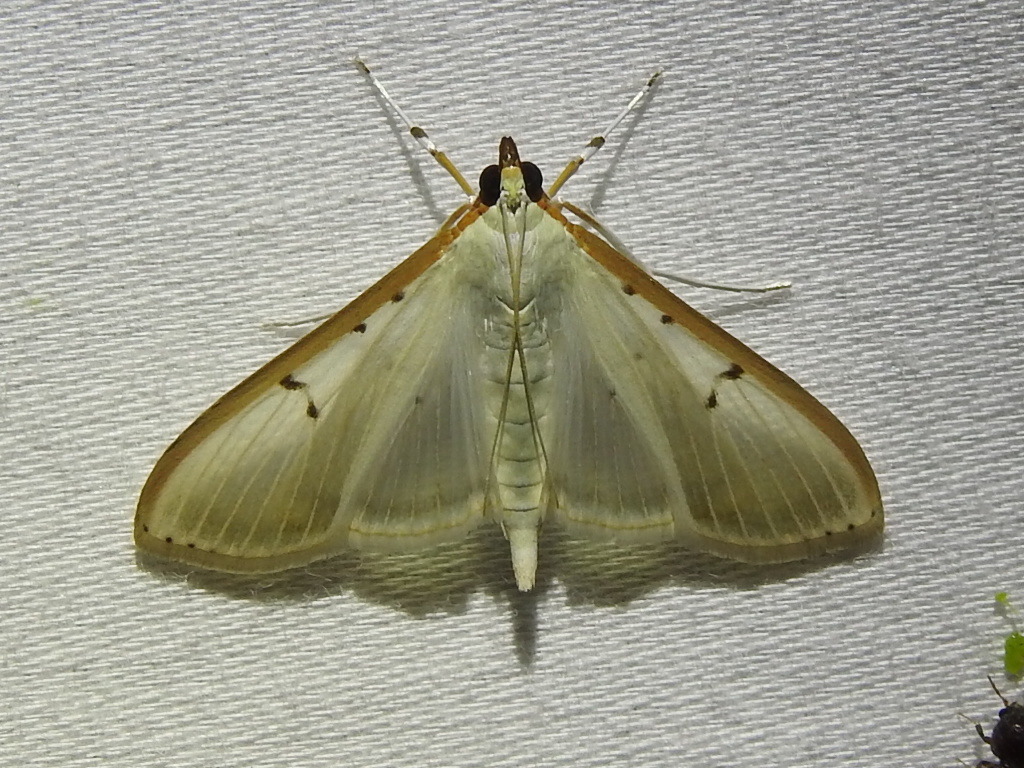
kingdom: Animalia
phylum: Arthropoda
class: Insecta
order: Lepidoptera
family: Crambidae
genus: Palpita
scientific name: Palpita quadristigmalis
